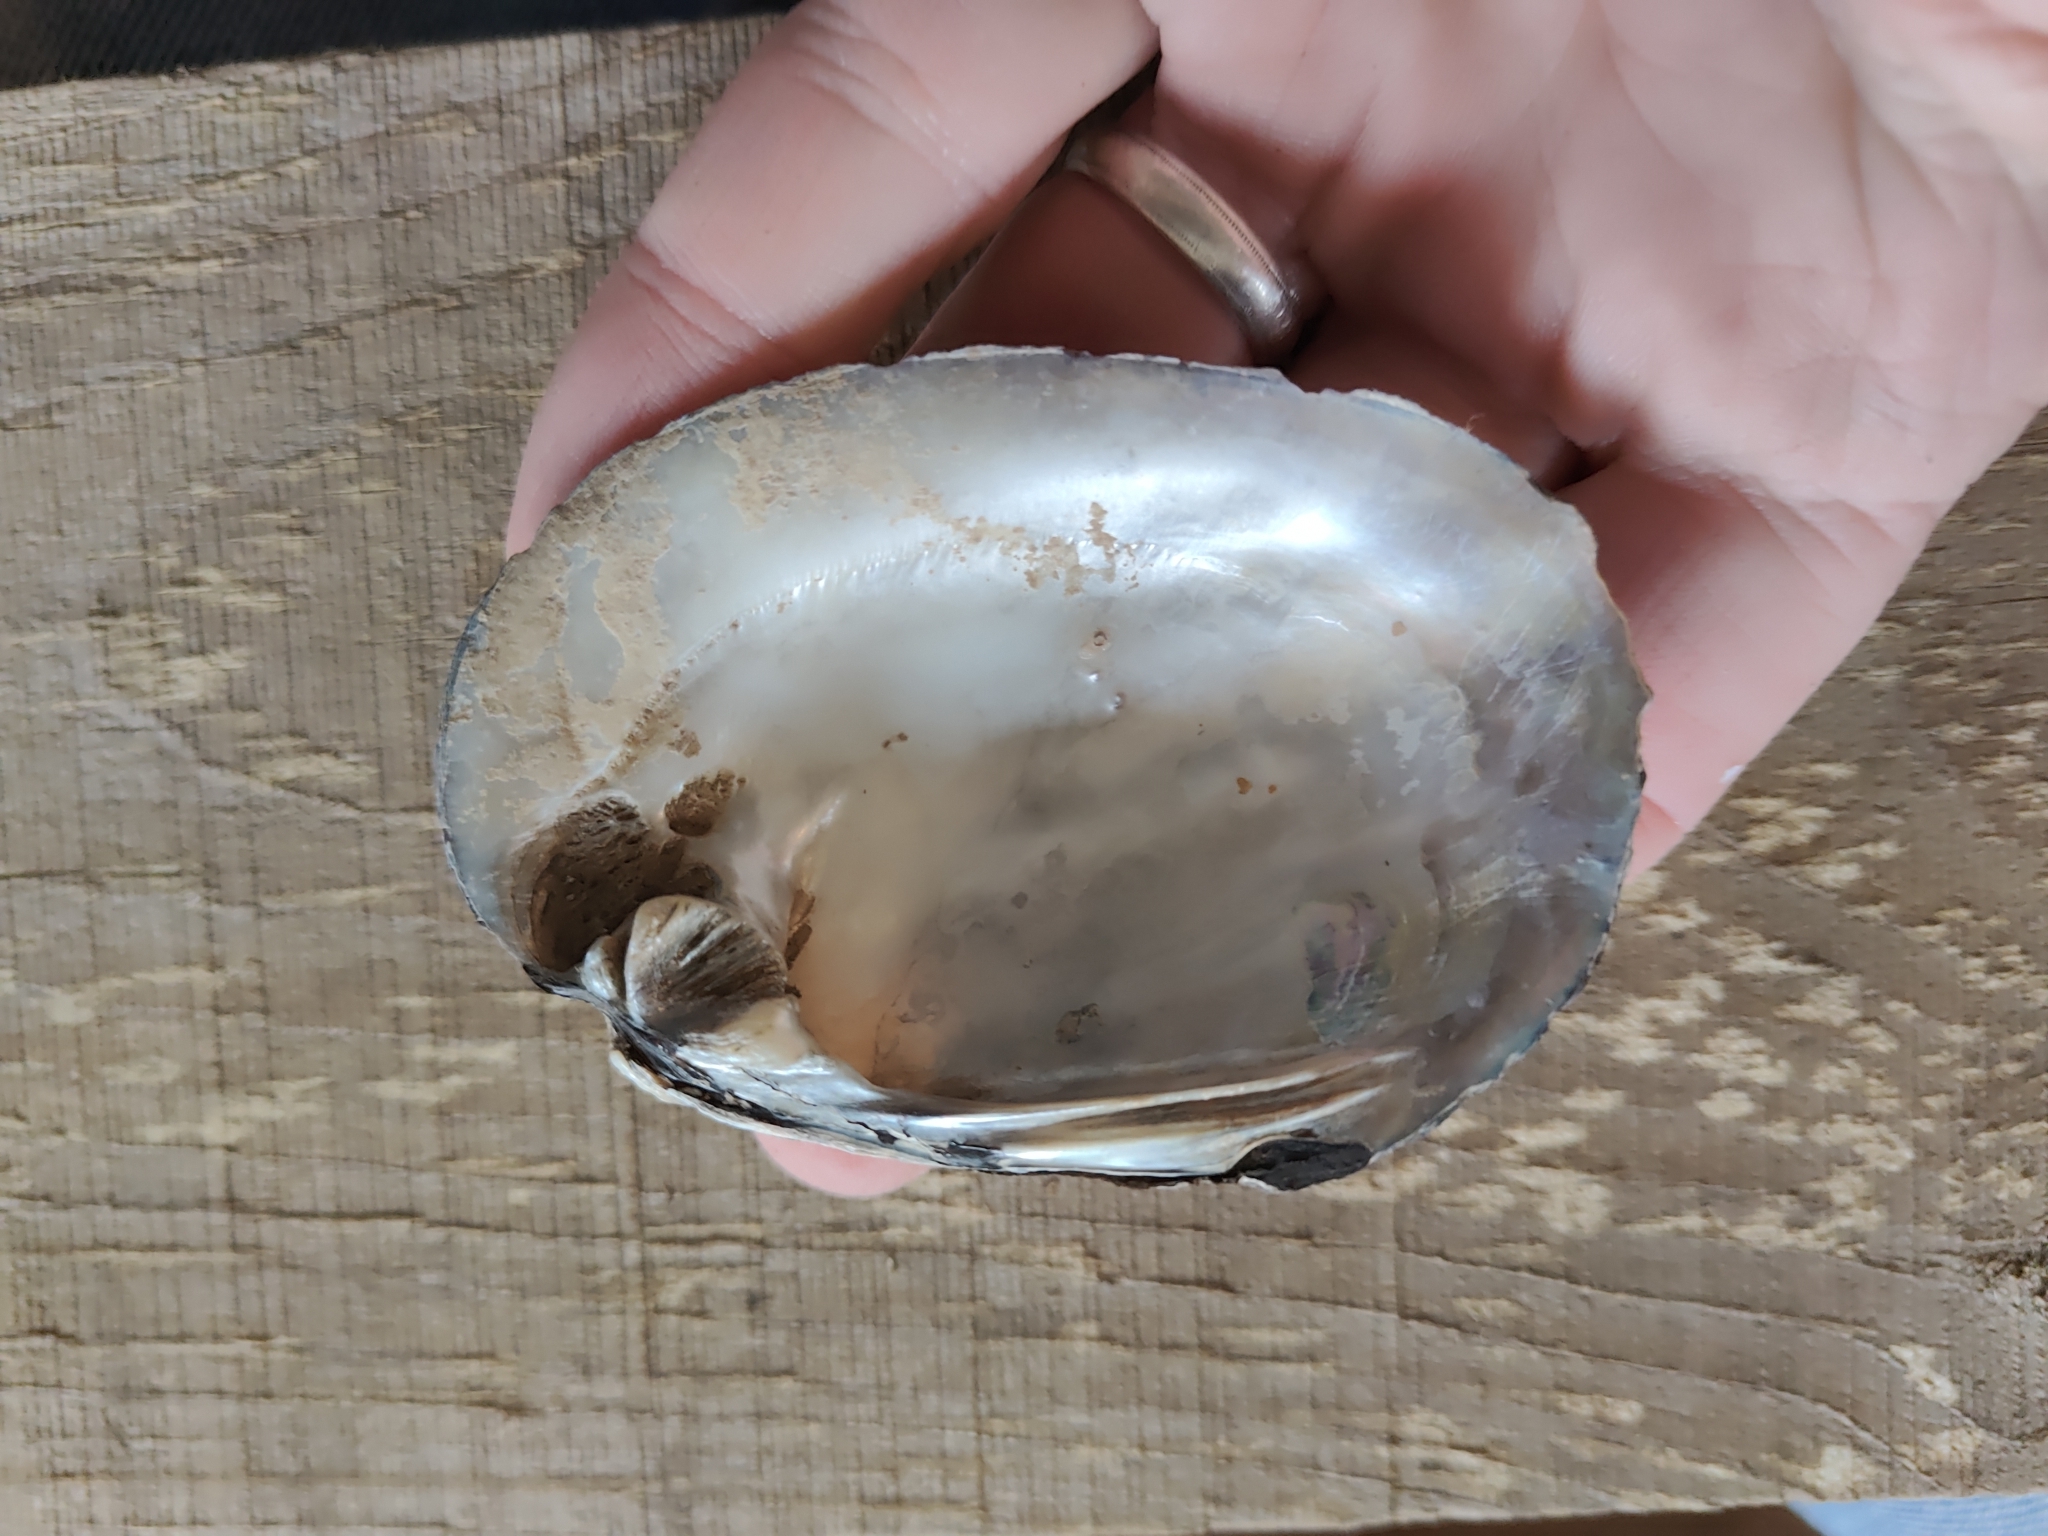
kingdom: Animalia
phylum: Mollusca
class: Bivalvia
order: Unionida
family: Unionidae
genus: Amblema
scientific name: Amblema plicata
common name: Threeridge
